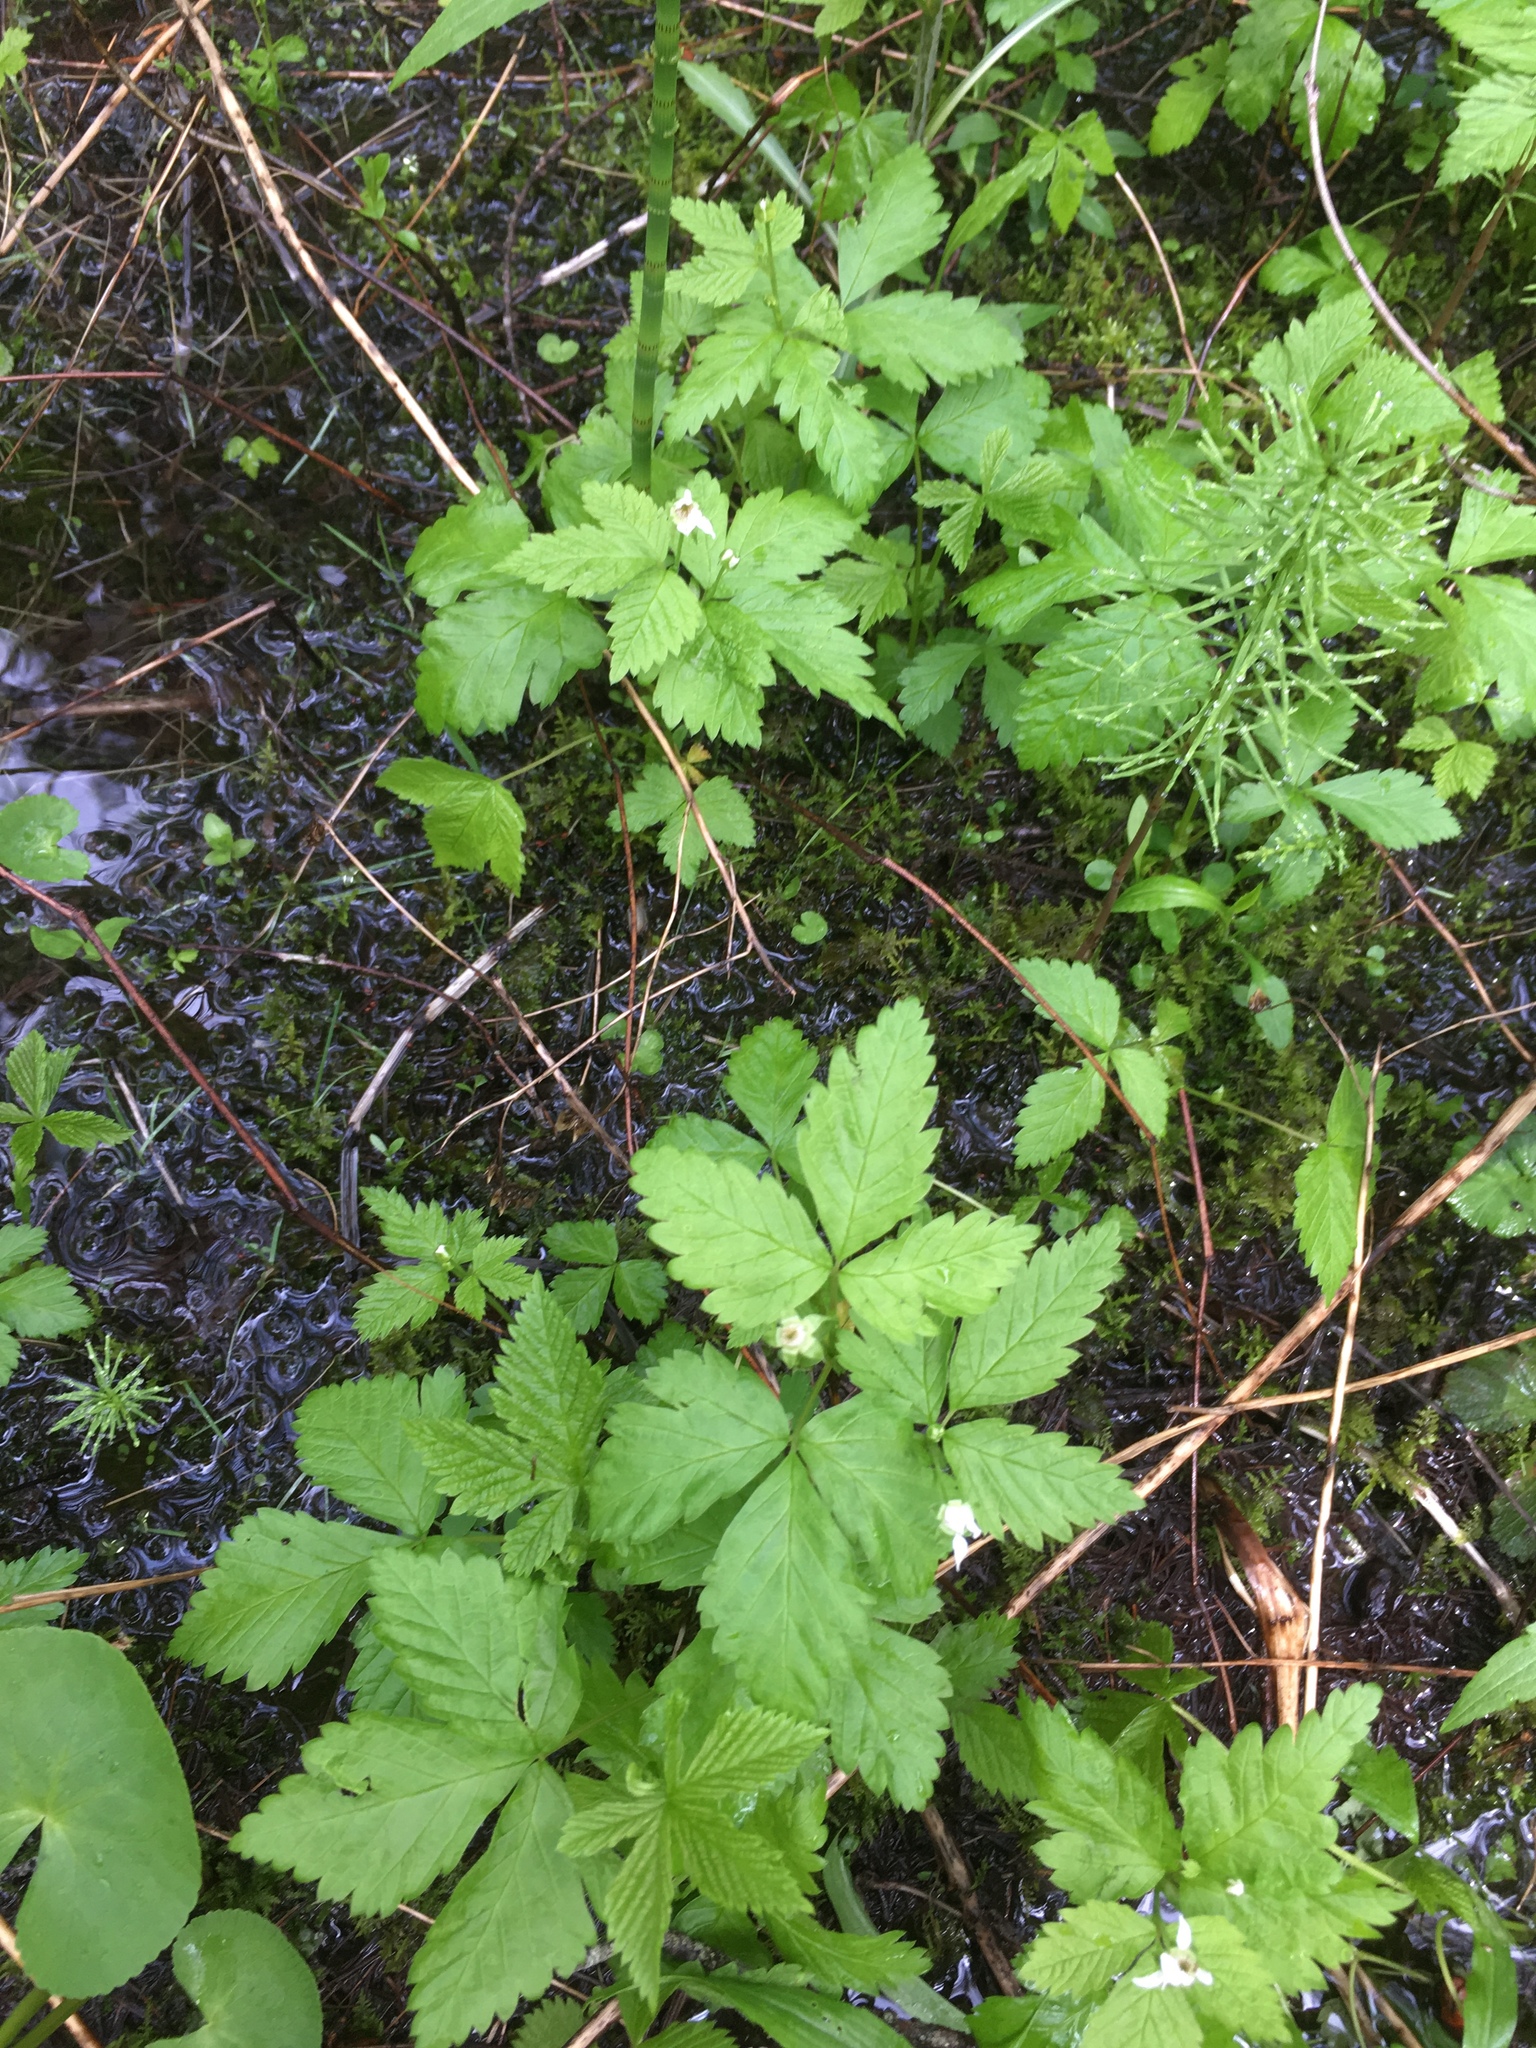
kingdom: Plantae
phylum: Tracheophyta
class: Magnoliopsida
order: Rosales
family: Rosaceae
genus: Rubus
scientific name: Rubus pubescens
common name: Dwarf raspberry
